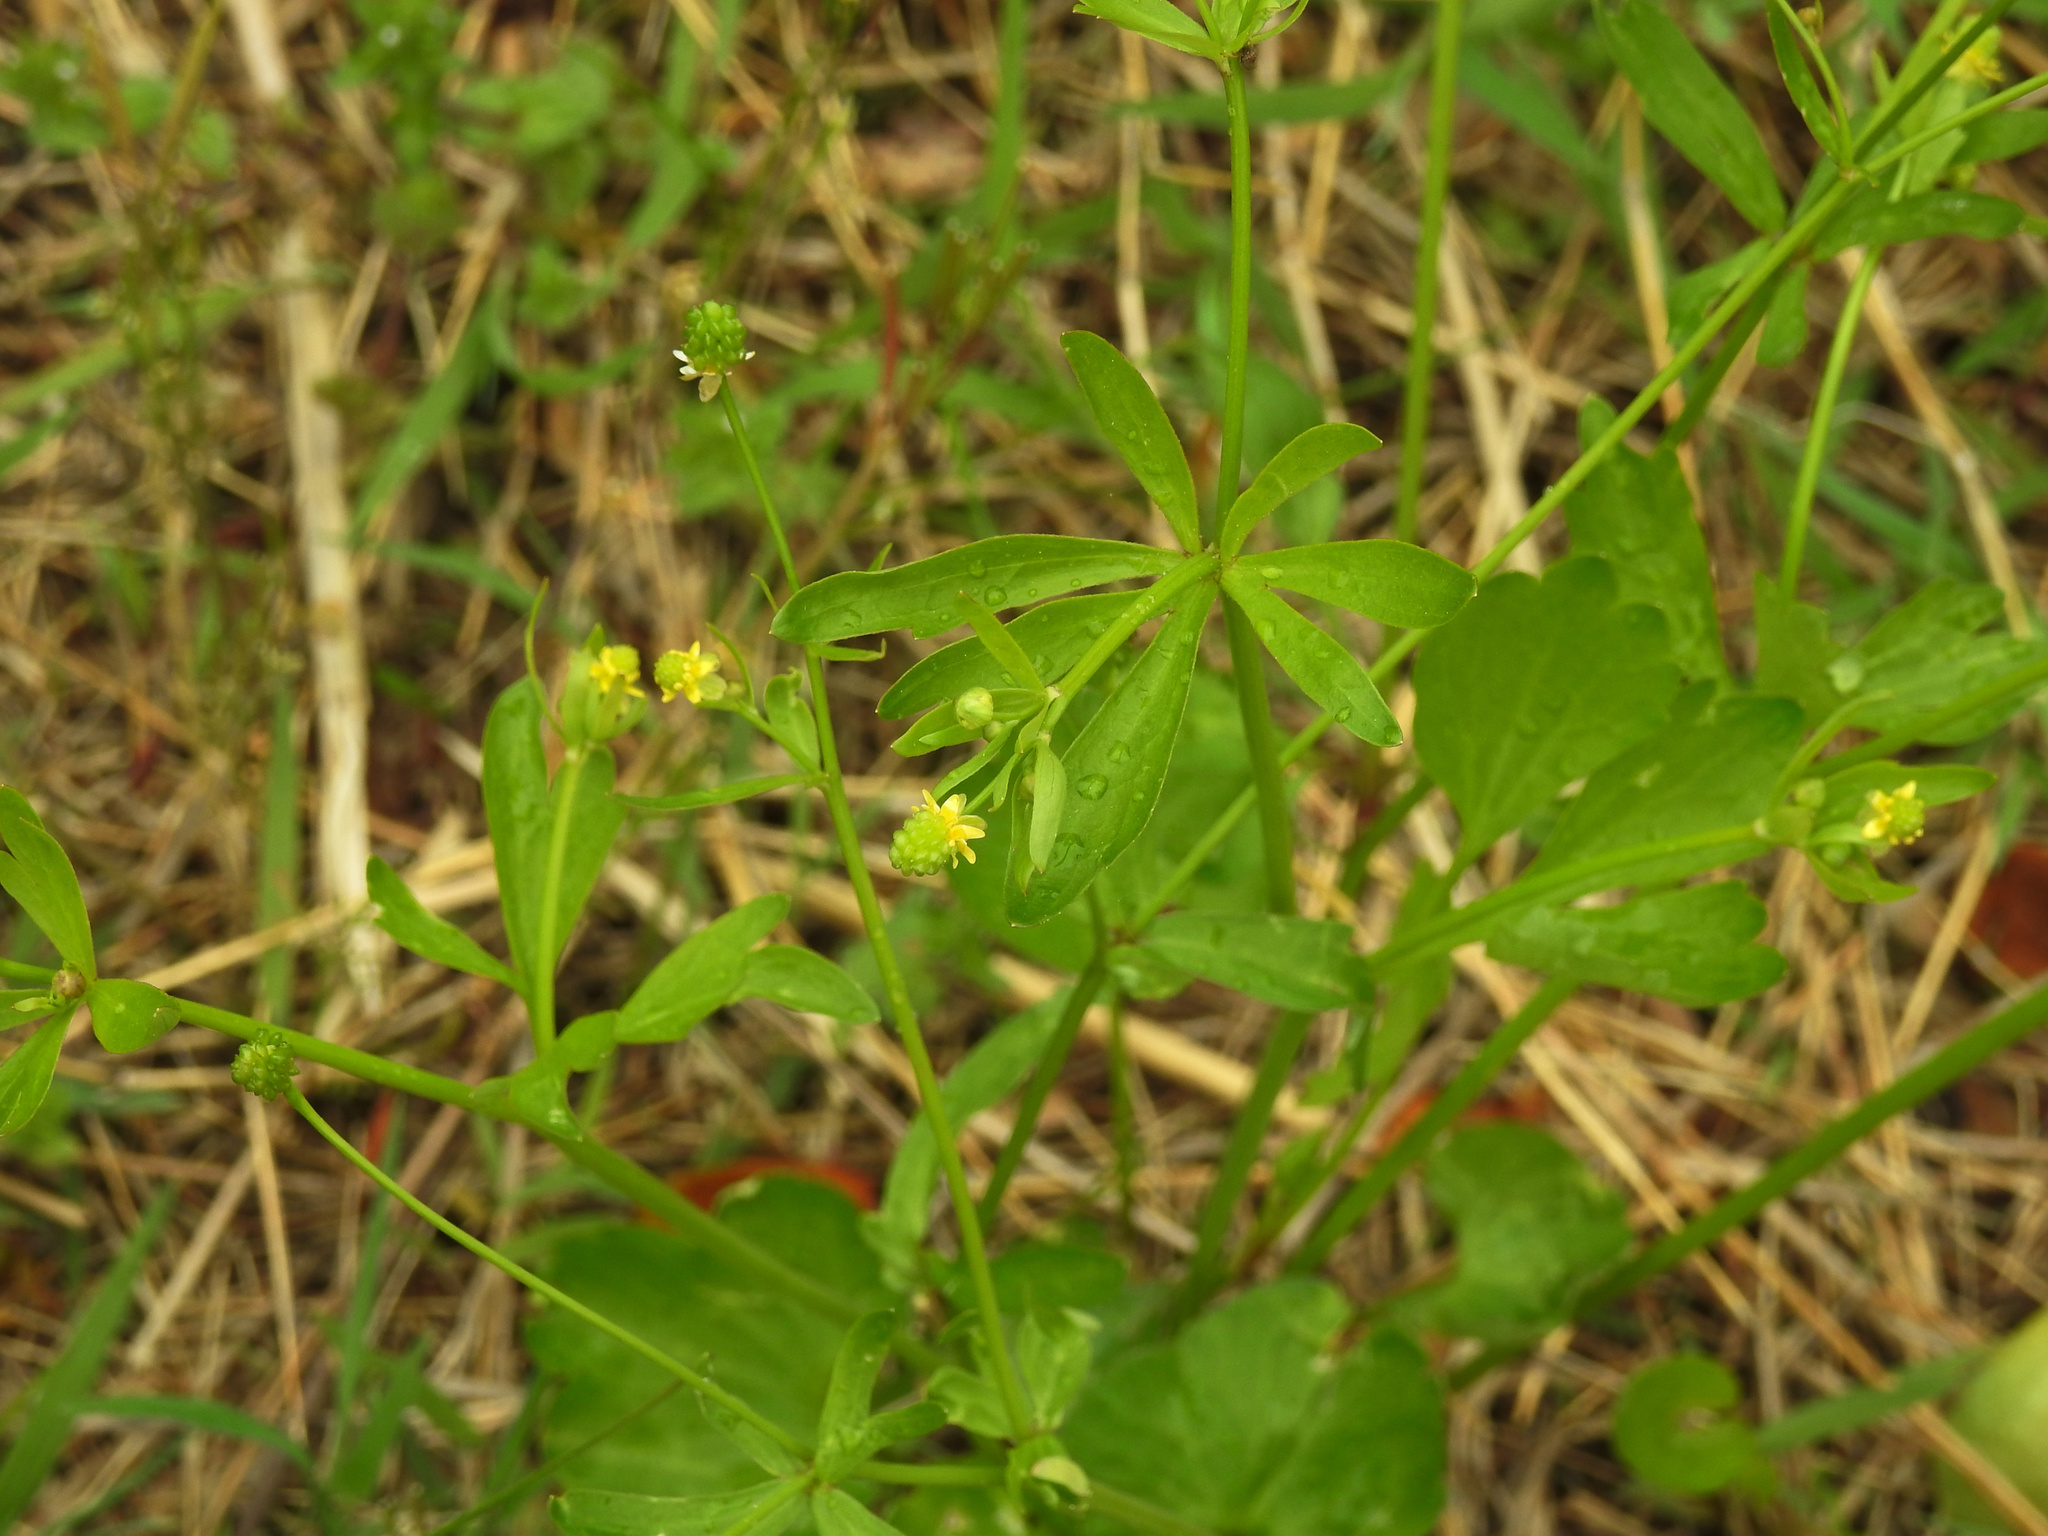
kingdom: Plantae
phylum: Tracheophyta
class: Magnoliopsida
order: Ranunculales
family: Ranunculaceae
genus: Ranunculus
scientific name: Ranunculus abortivus
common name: Early wood buttercup
